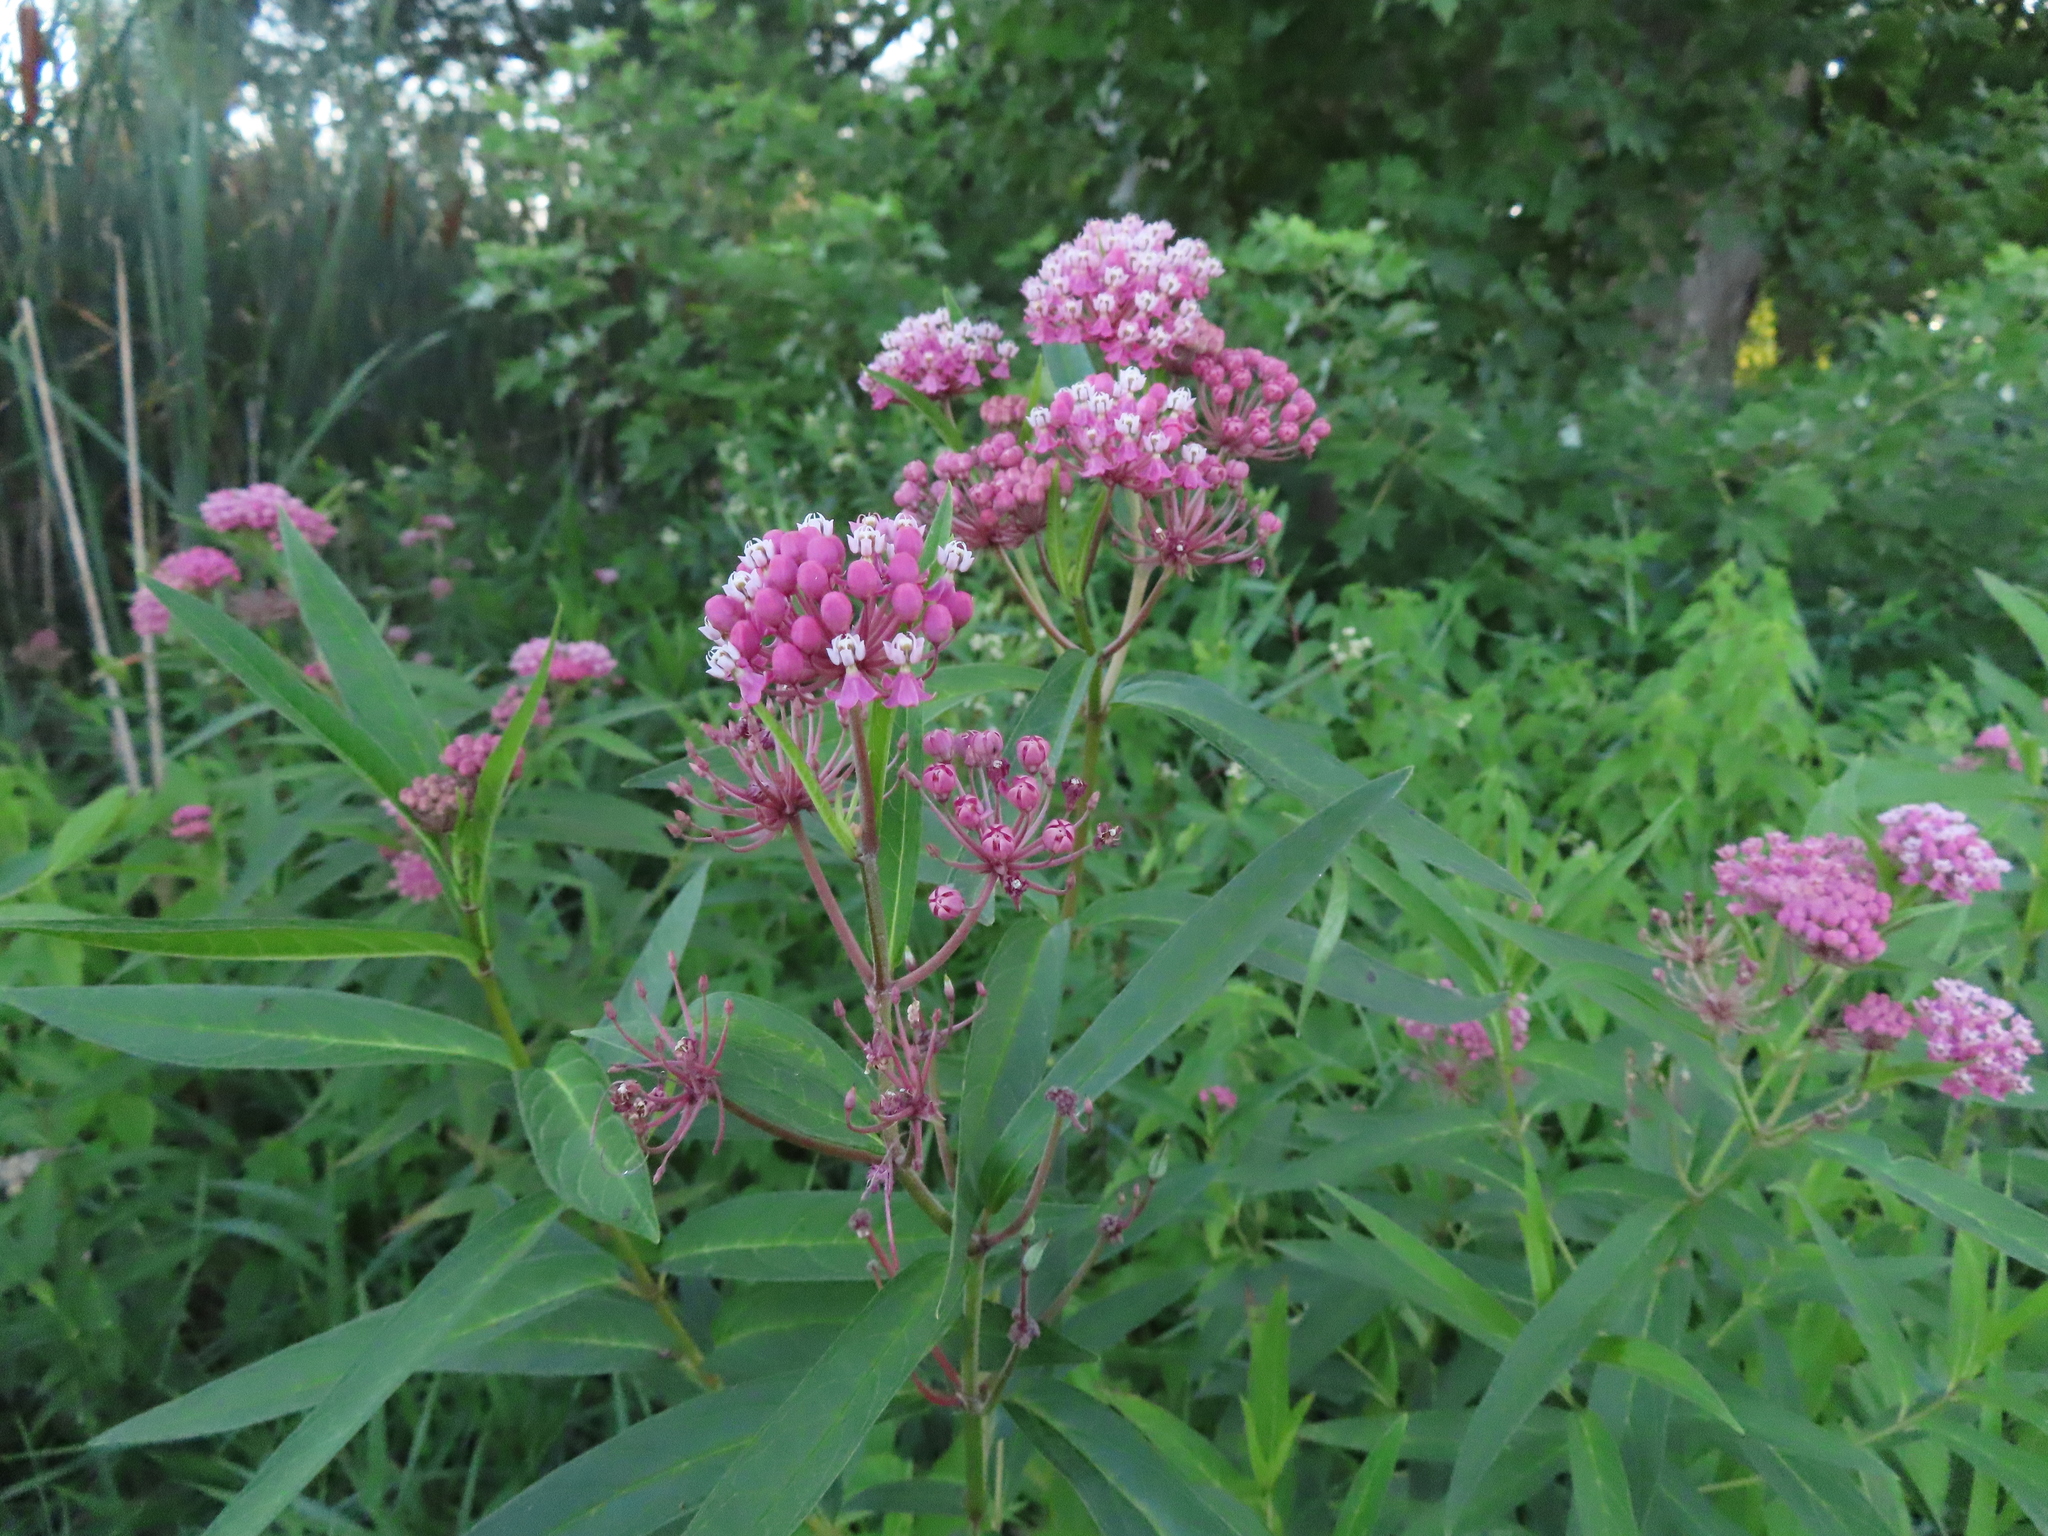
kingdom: Plantae
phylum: Tracheophyta
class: Magnoliopsida
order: Gentianales
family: Apocynaceae
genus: Asclepias
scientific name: Asclepias incarnata
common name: Swamp milkweed
